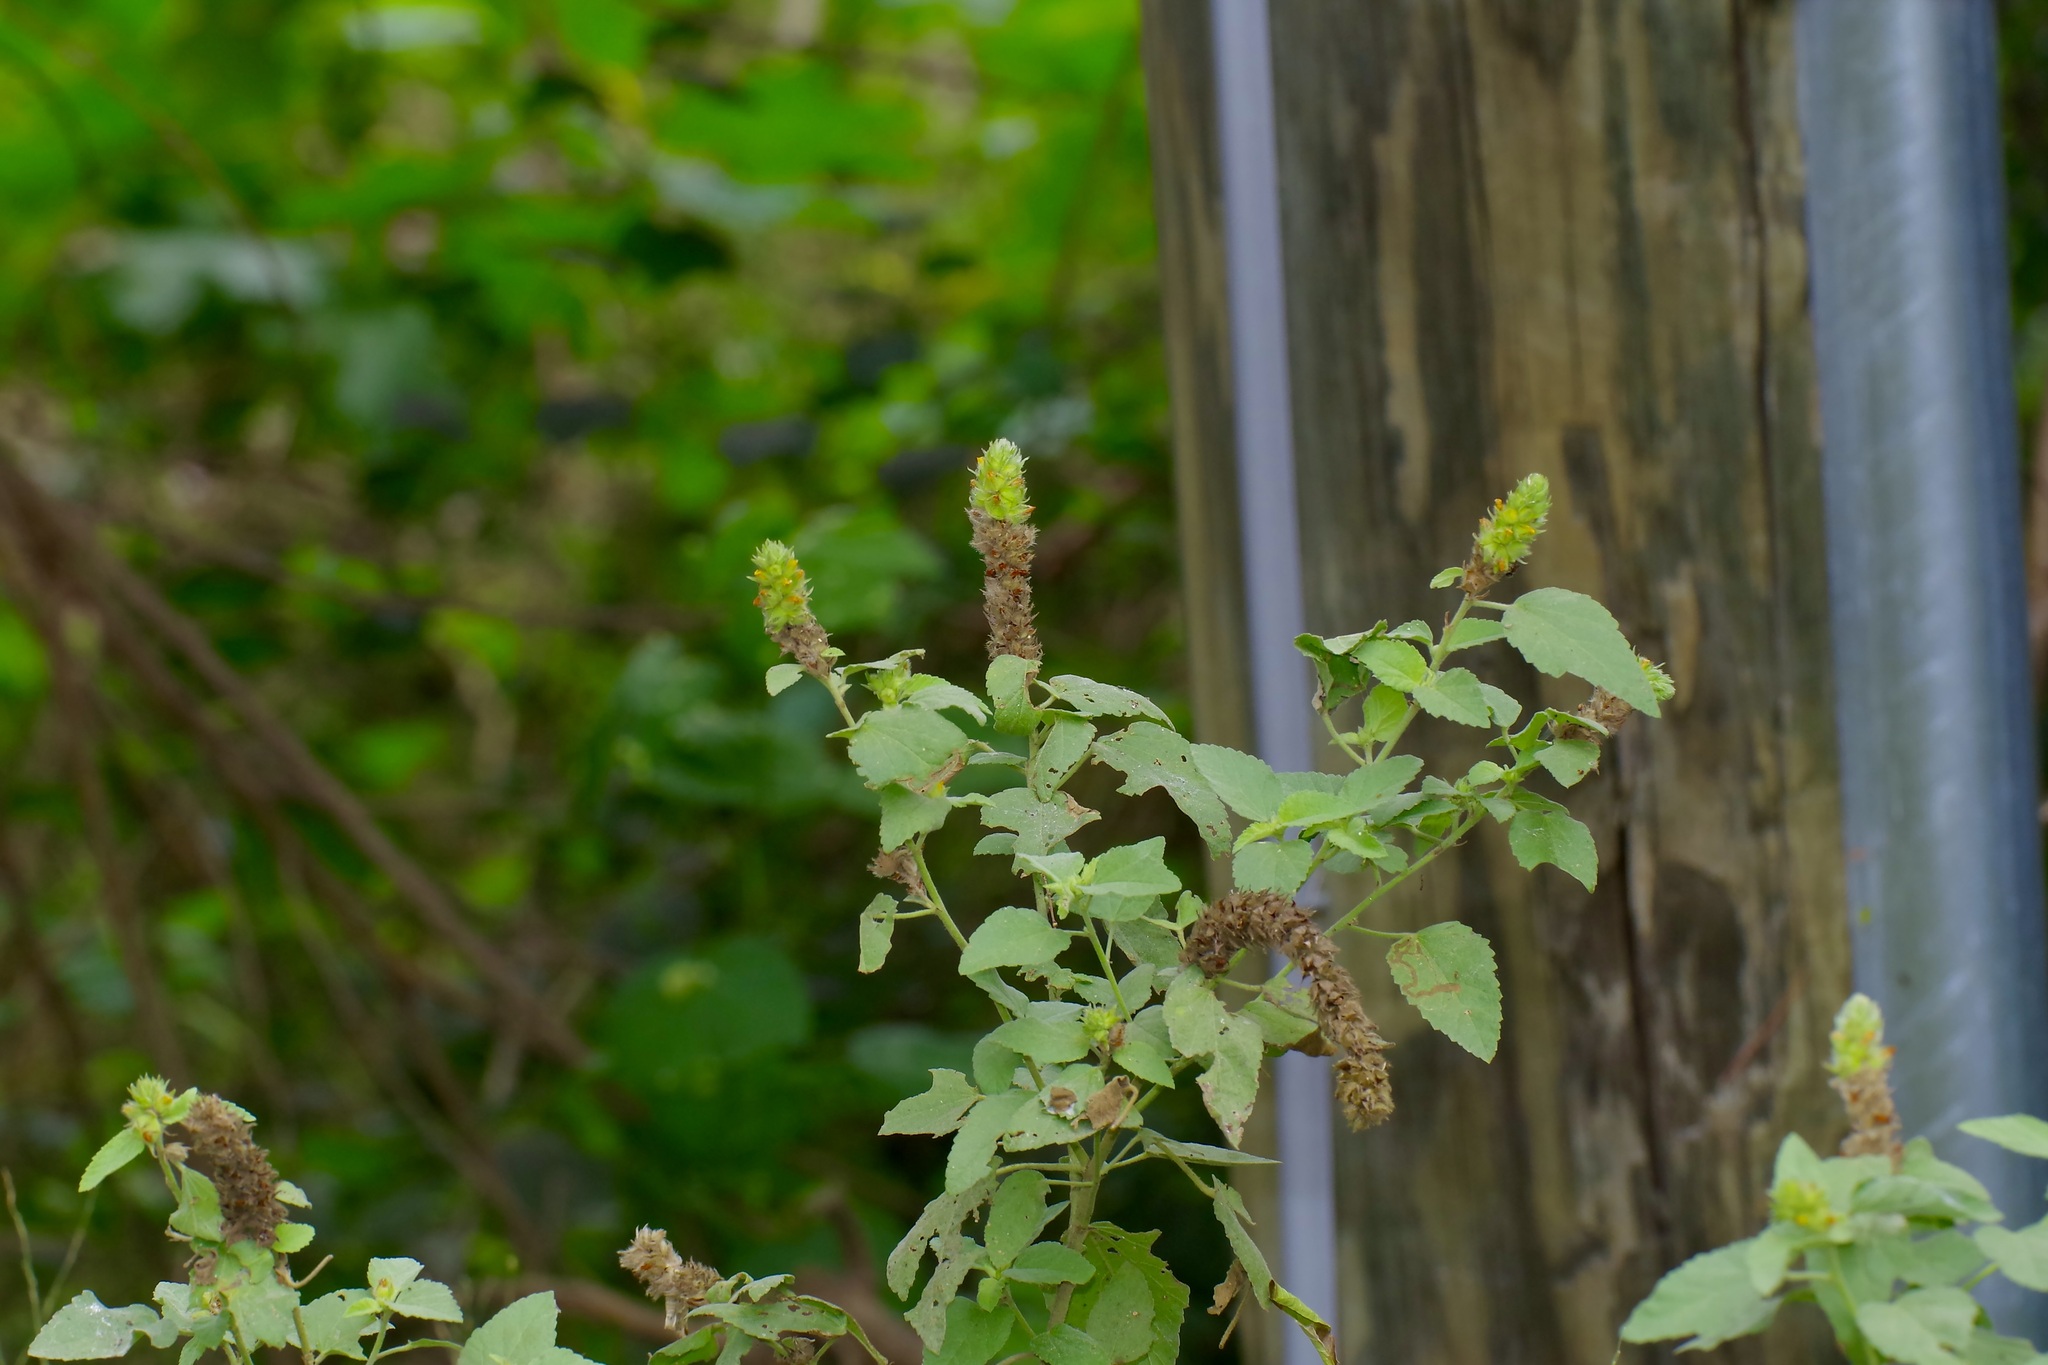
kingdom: Plantae
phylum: Tracheophyta
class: Magnoliopsida
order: Malvales
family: Malvaceae
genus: Malvastrum
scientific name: Malvastrum americanum
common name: Spiked malvastrum
